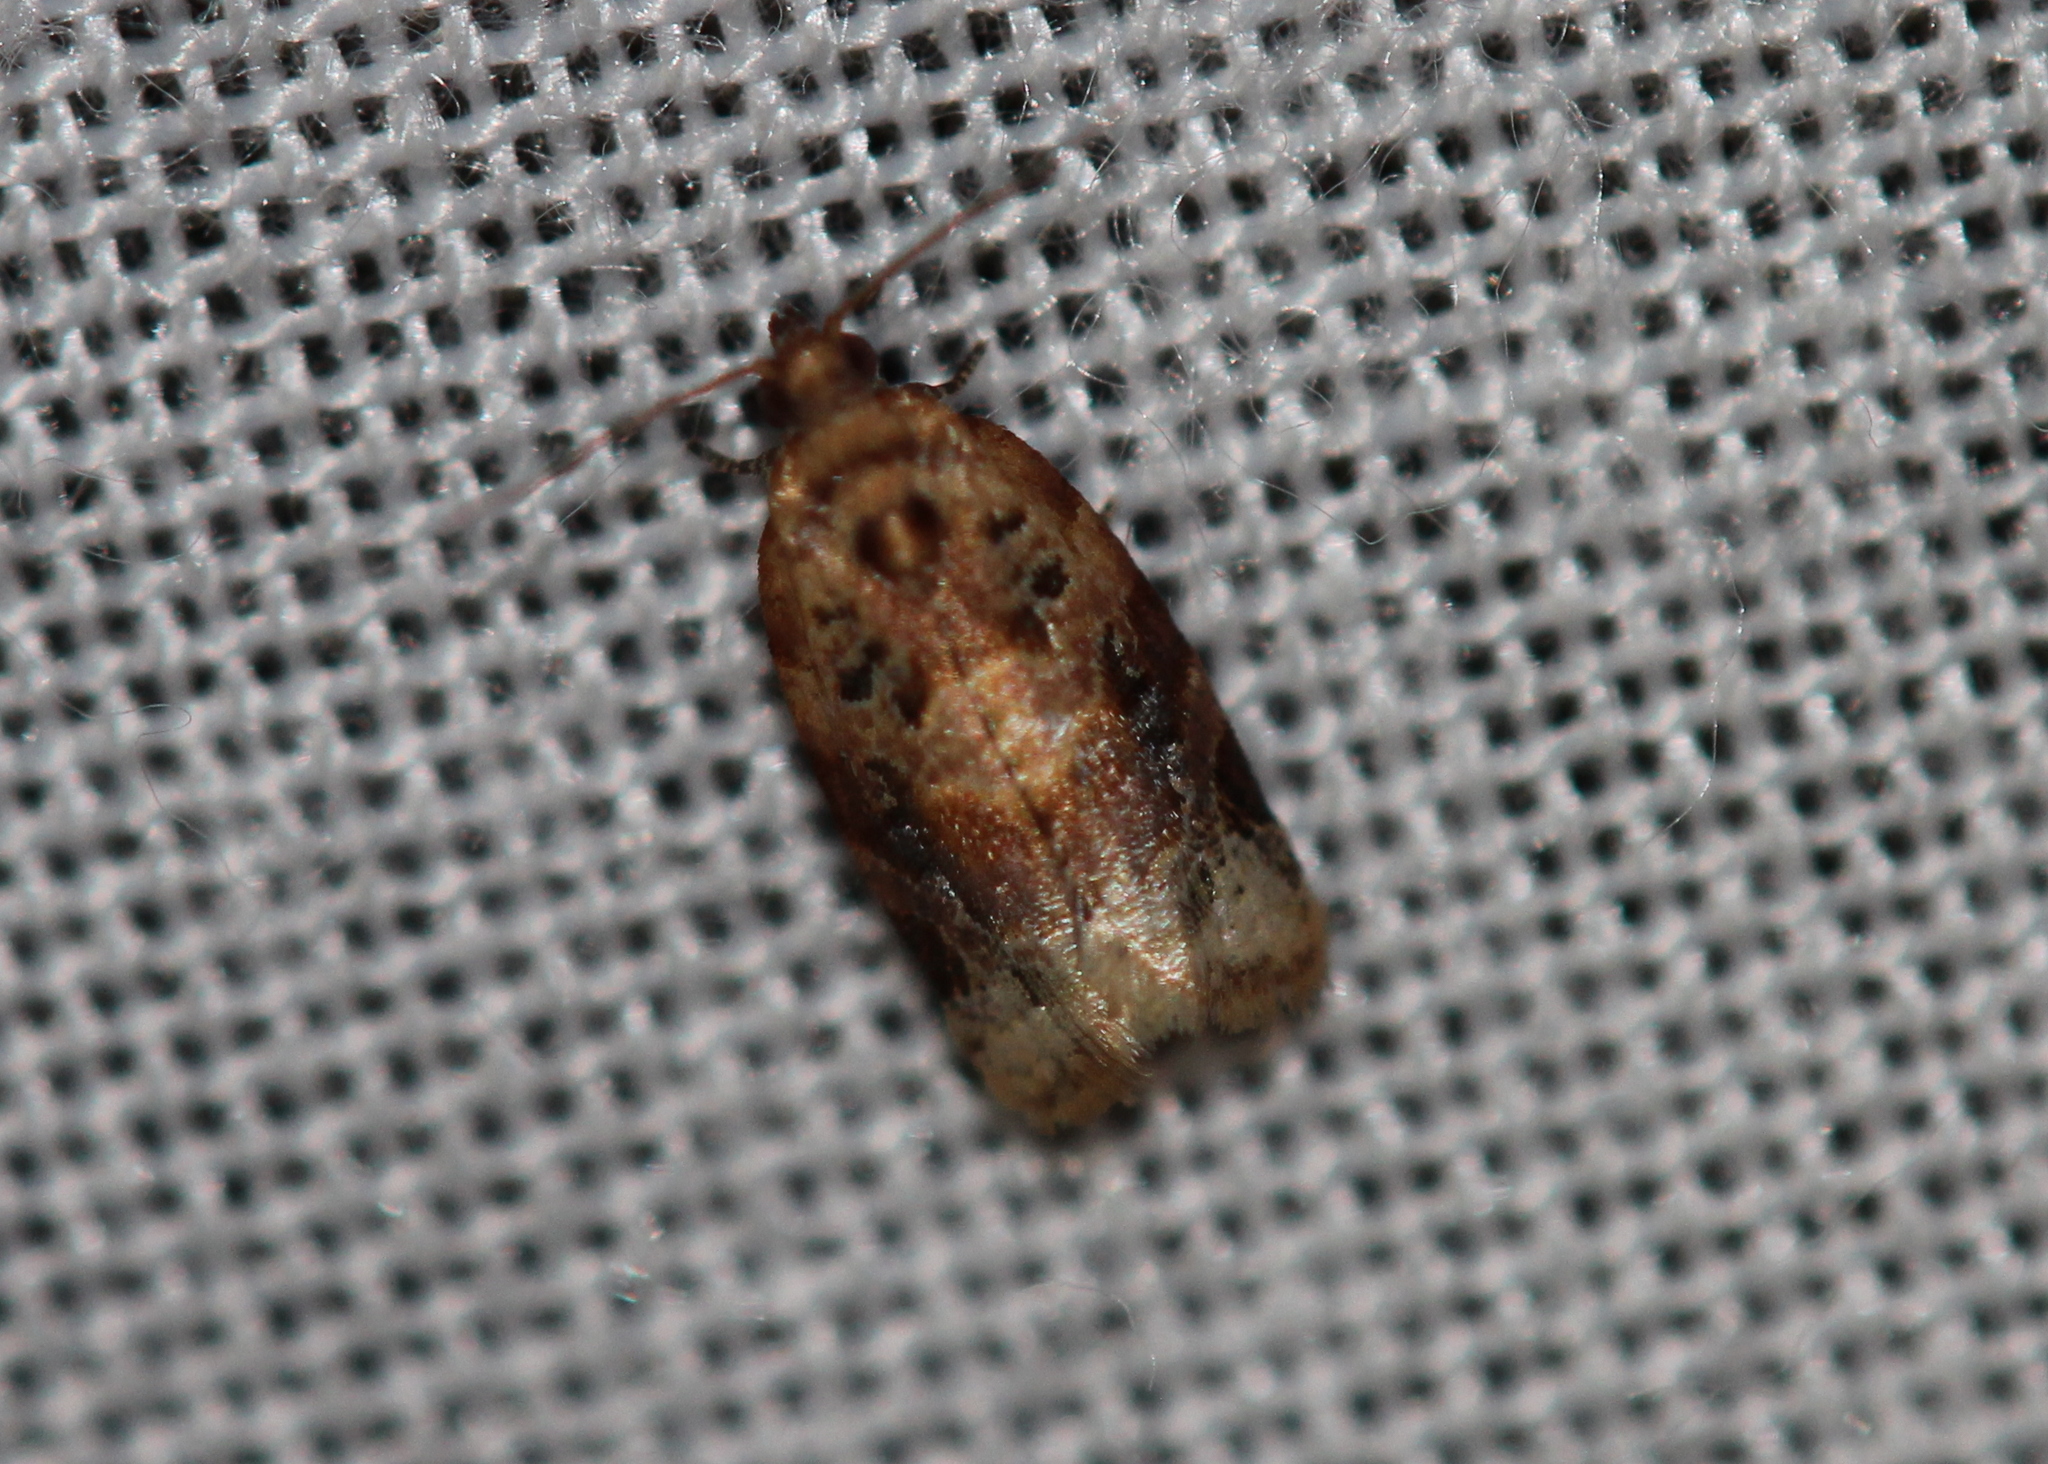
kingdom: Animalia
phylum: Arthropoda
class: Insecta
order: Lepidoptera
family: Tortricidae
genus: Argyrotaenia
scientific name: Argyrotaenia velutinana
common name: Red-banded leafroller moth
